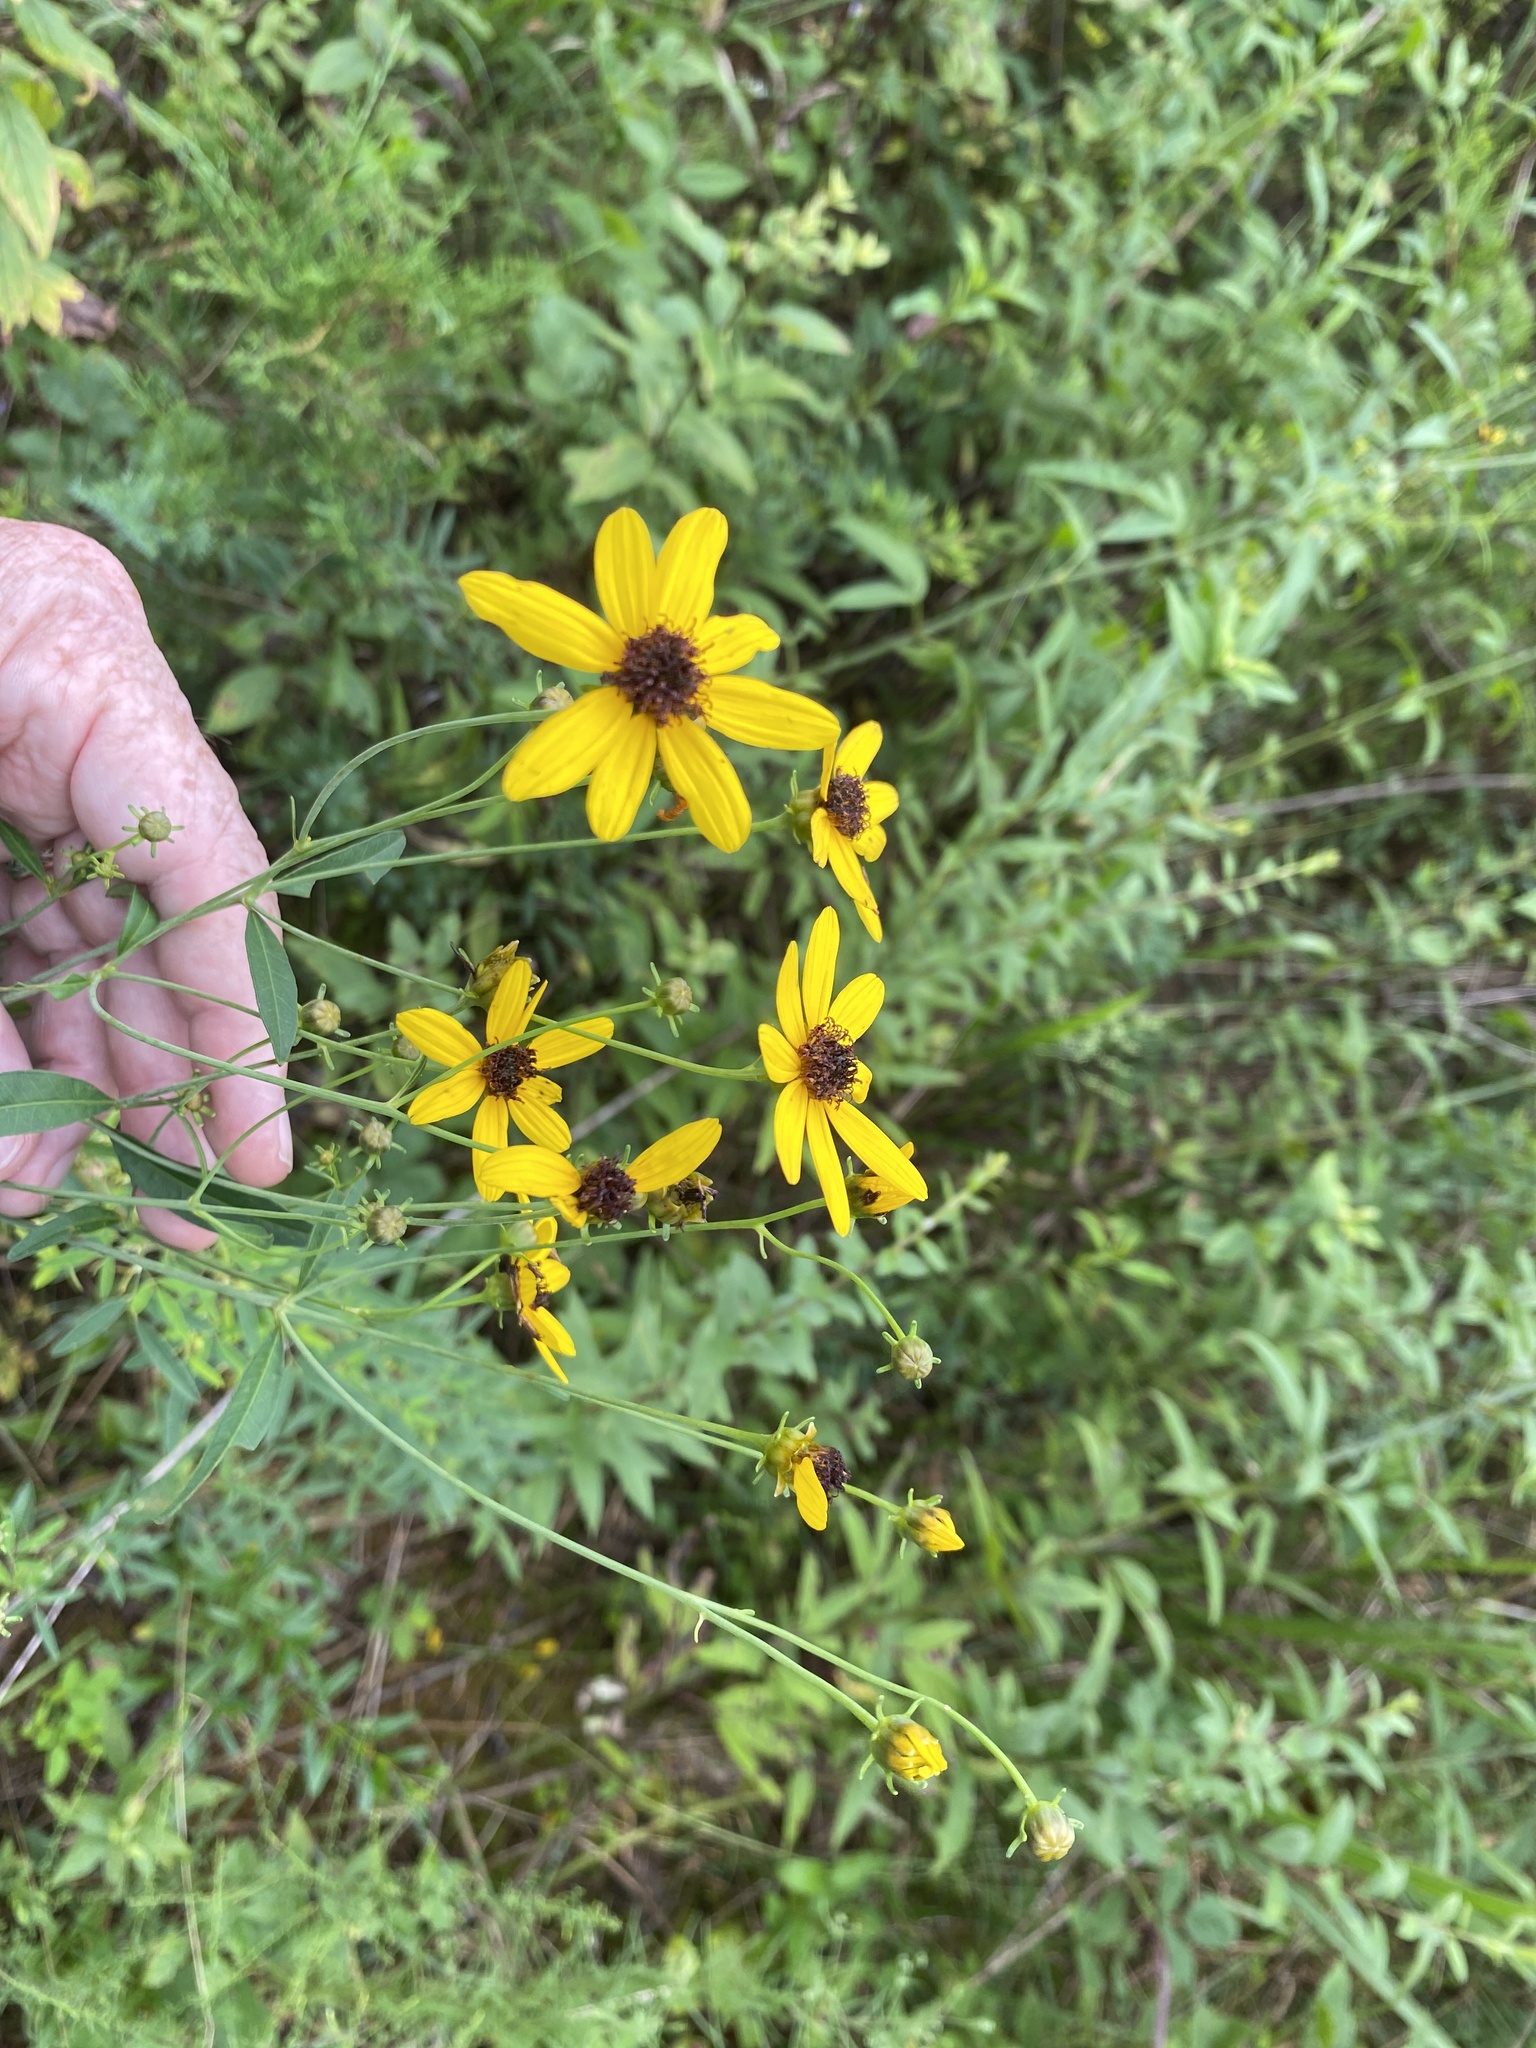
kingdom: Plantae
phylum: Tracheophyta
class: Magnoliopsida
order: Asterales
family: Asteraceae
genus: Coreopsis
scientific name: Coreopsis tripteris
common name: Tall coreopsis
